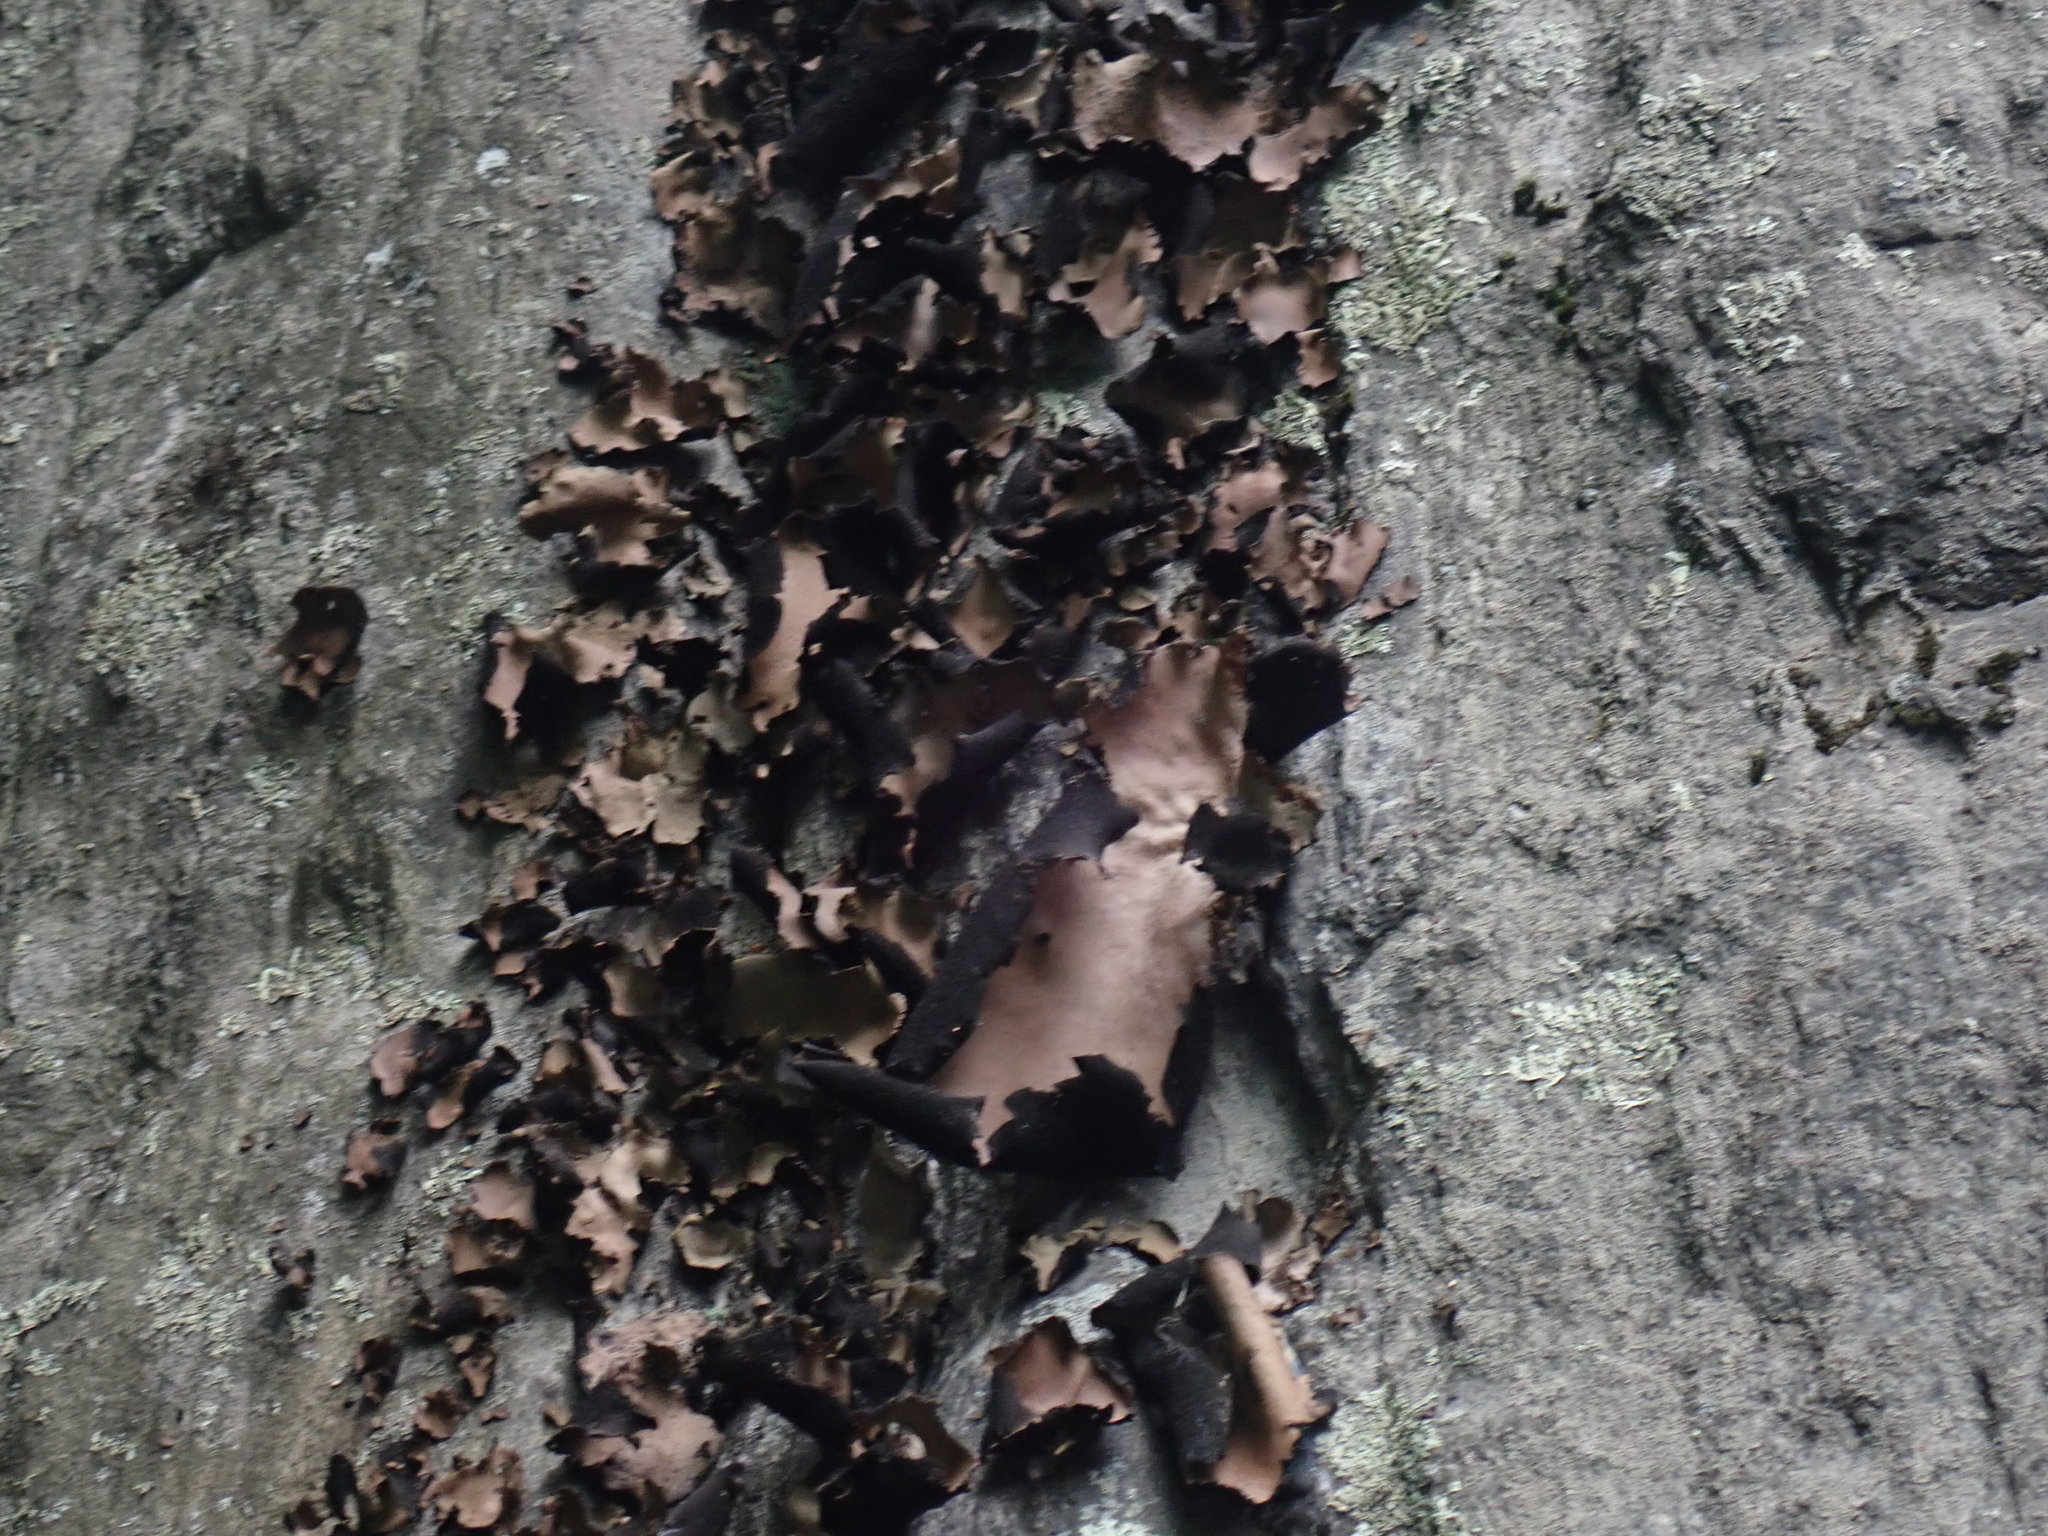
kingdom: Fungi
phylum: Ascomycota
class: Lecanoromycetes
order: Umbilicariales
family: Umbilicariaceae
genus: Umbilicaria
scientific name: Umbilicaria mammulata
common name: Smooth rock tripe
